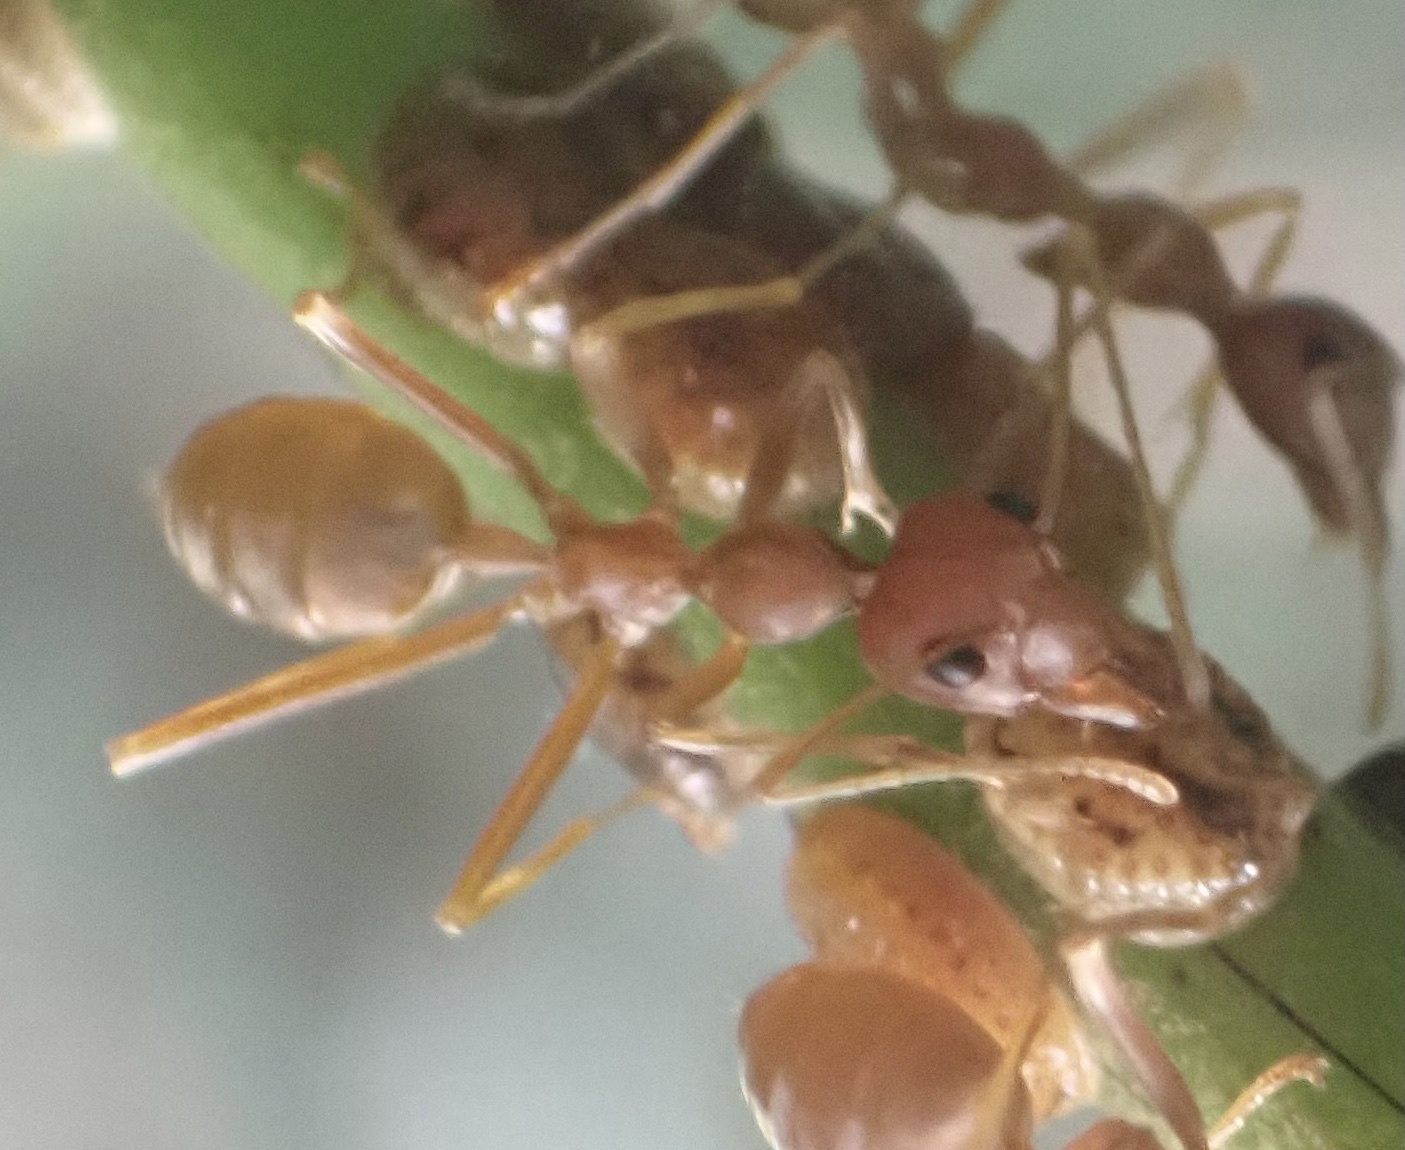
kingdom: Animalia
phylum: Arthropoda
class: Insecta
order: Hymenoptera
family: Formicidae
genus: Oecophylla
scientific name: Oecophylla longinoda
